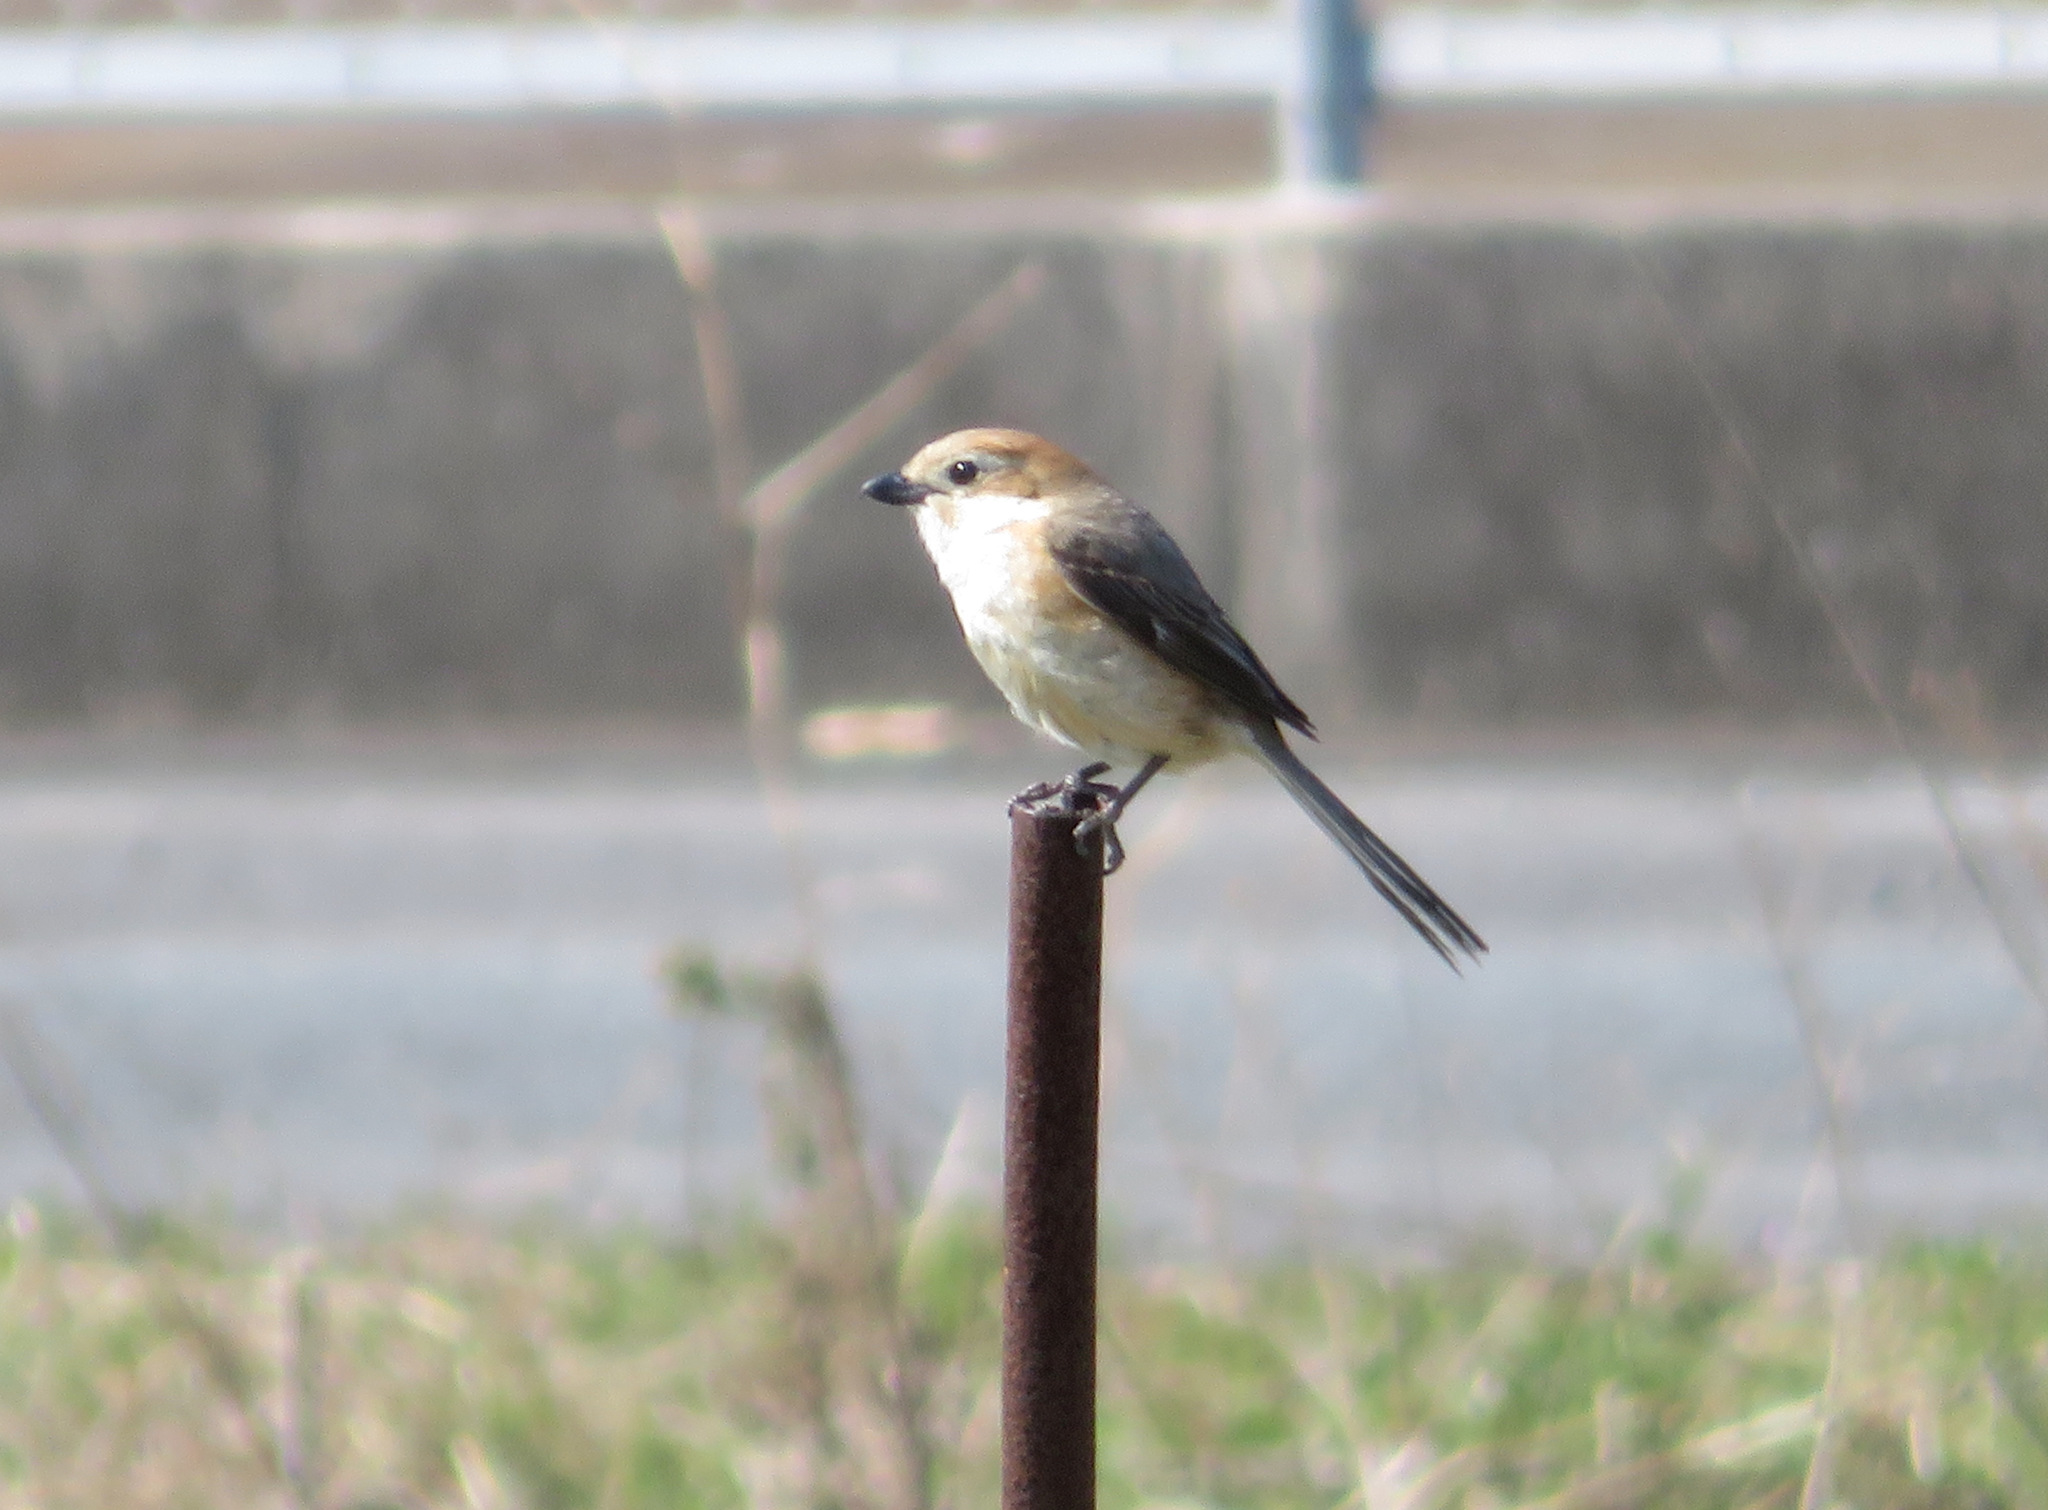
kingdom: Animalia
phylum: Chordata
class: Aves
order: Passeriformes
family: Laniidae
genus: Lanius
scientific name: Lanius bucephalus
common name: Bull-headed shrike
